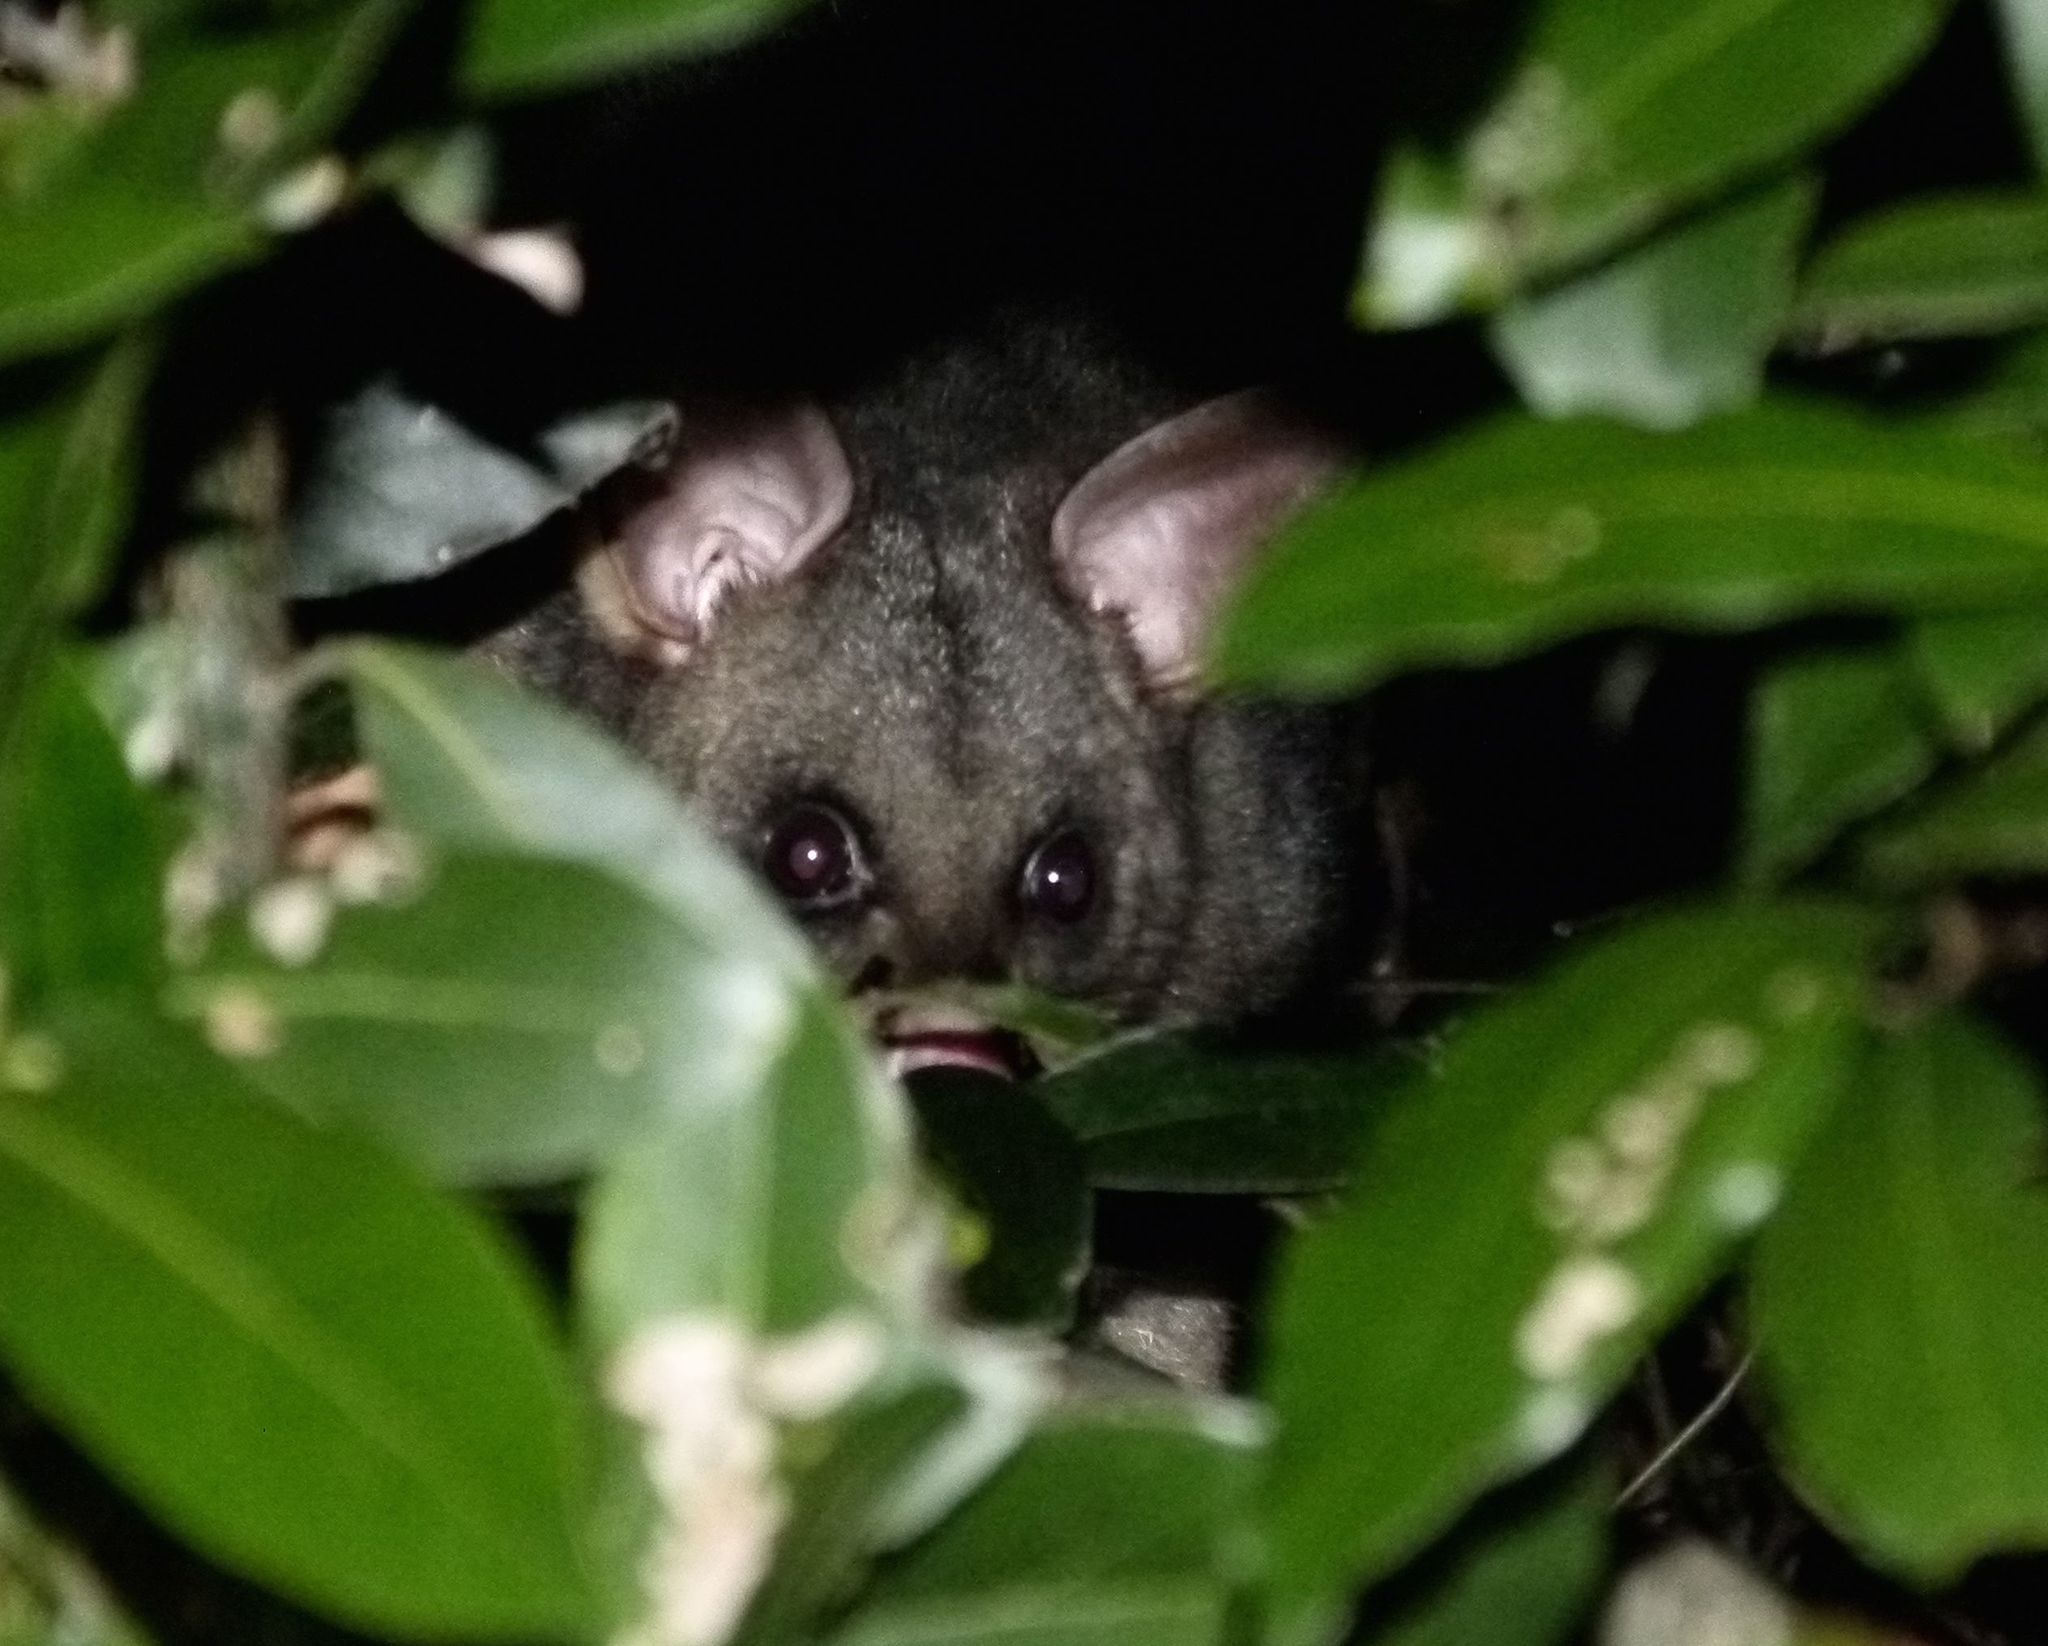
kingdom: Animalia
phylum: Chordata
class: Mammalia
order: Diprotodontia
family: Phalangeridae
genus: Trichosurus
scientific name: Trichosurus vulpecula
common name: Common brushtail
